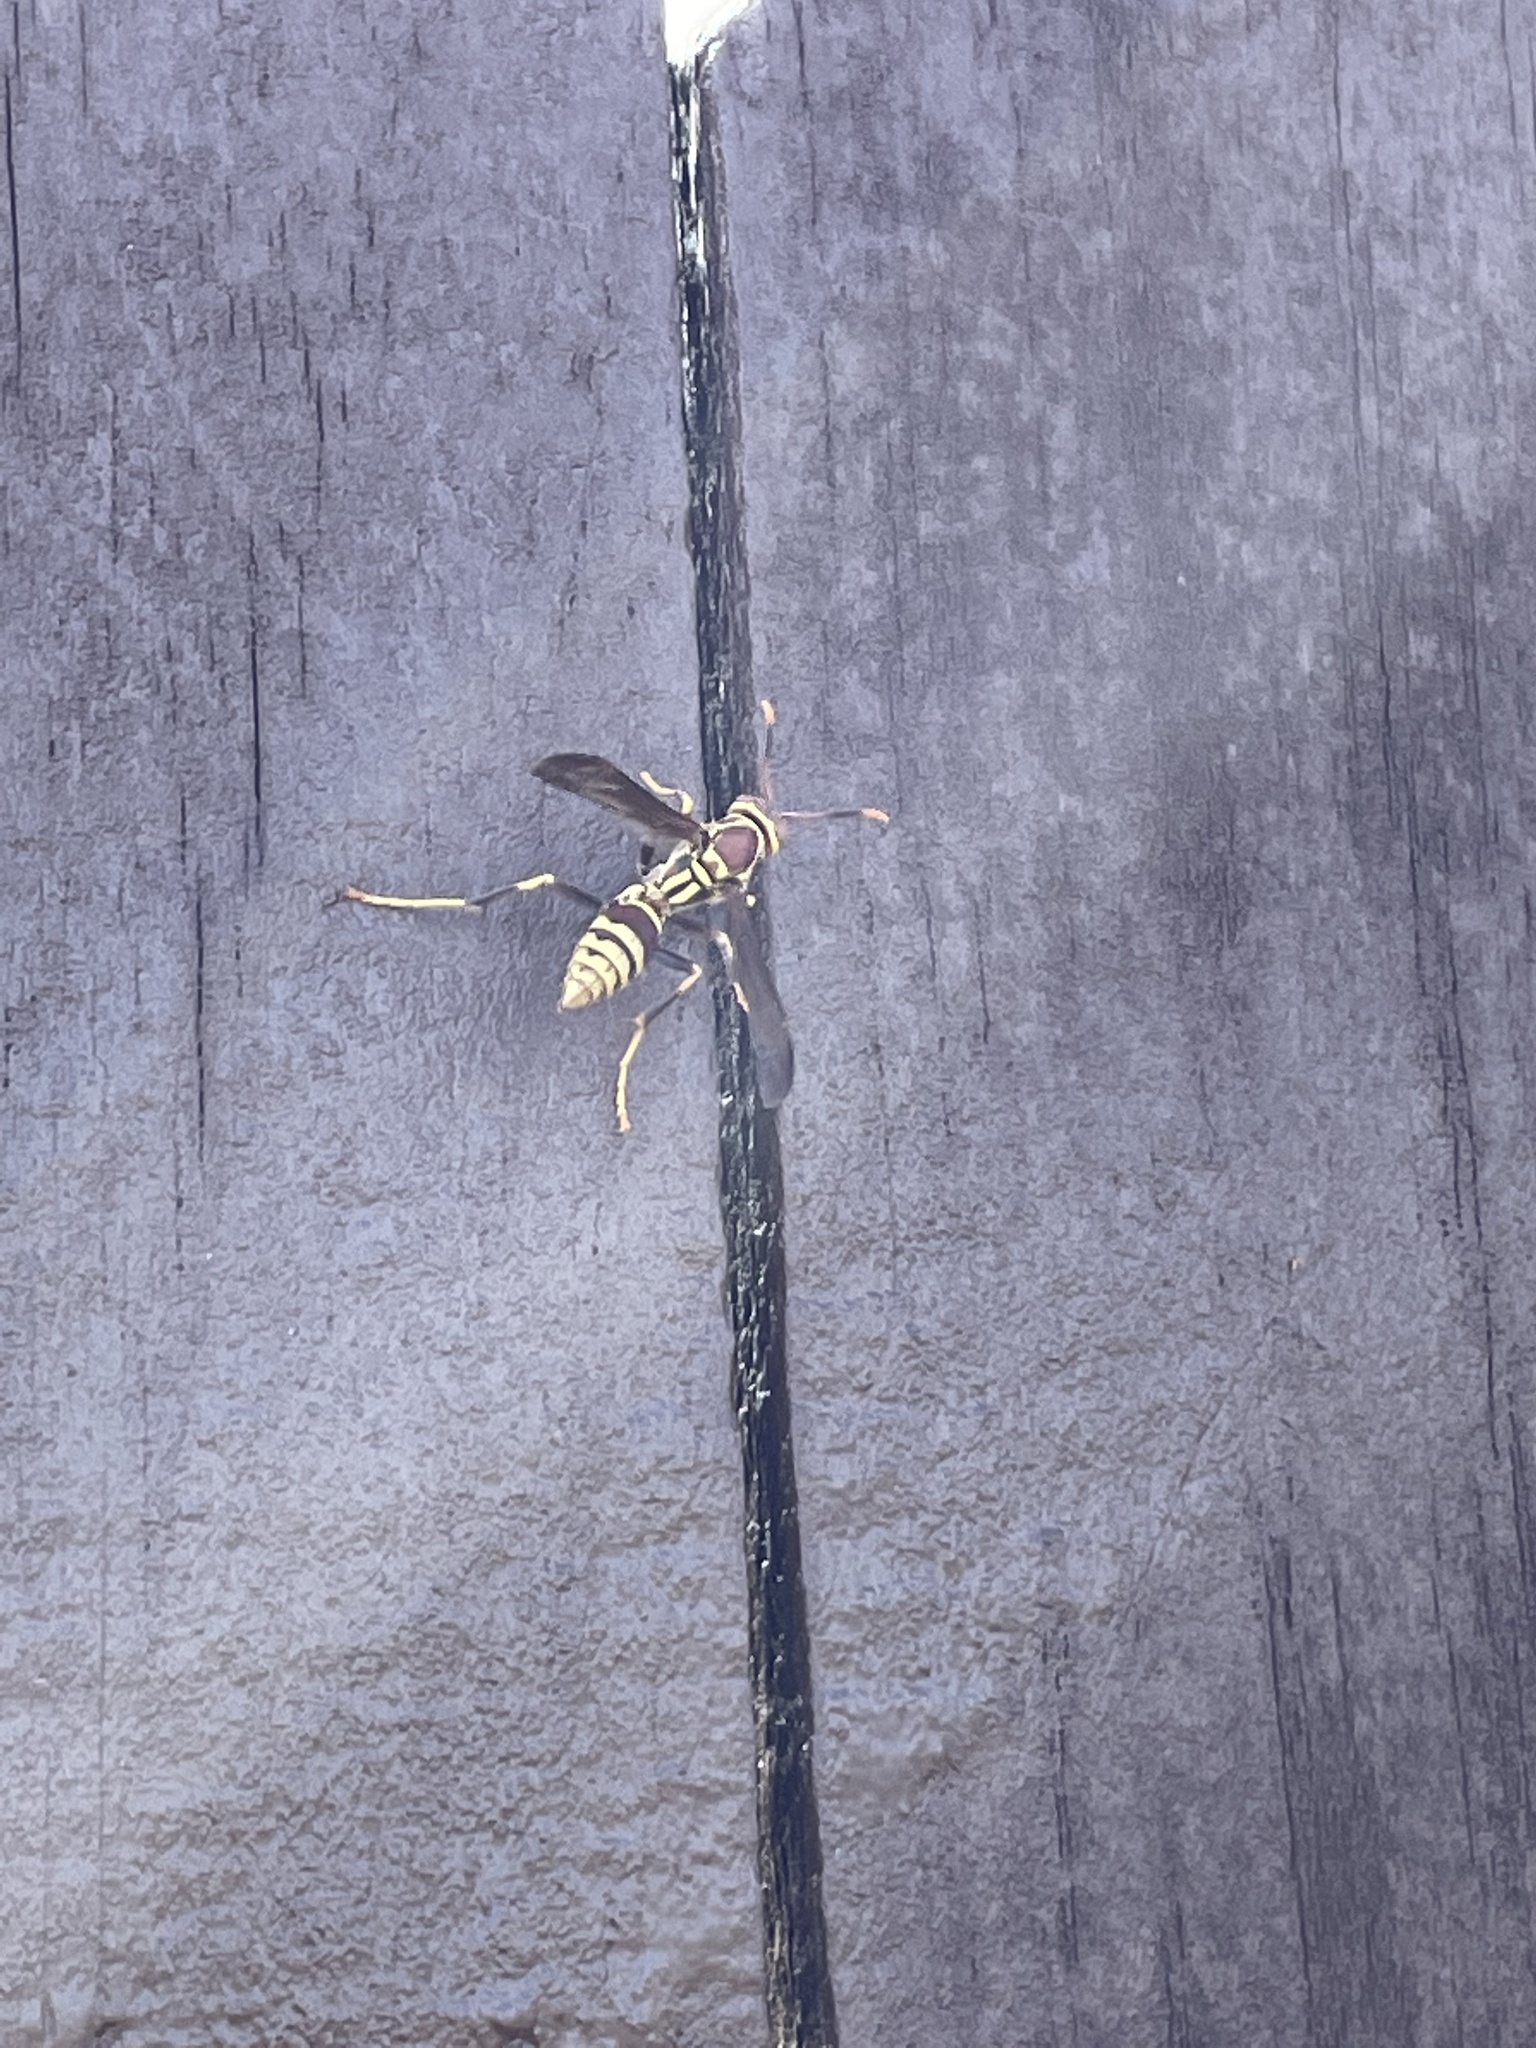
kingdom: Animalia
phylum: Arthropoda
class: Insecta
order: Hymenoptera
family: Eumenidae
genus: Polistes
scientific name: Polistes exclamans
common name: Paper wasp
